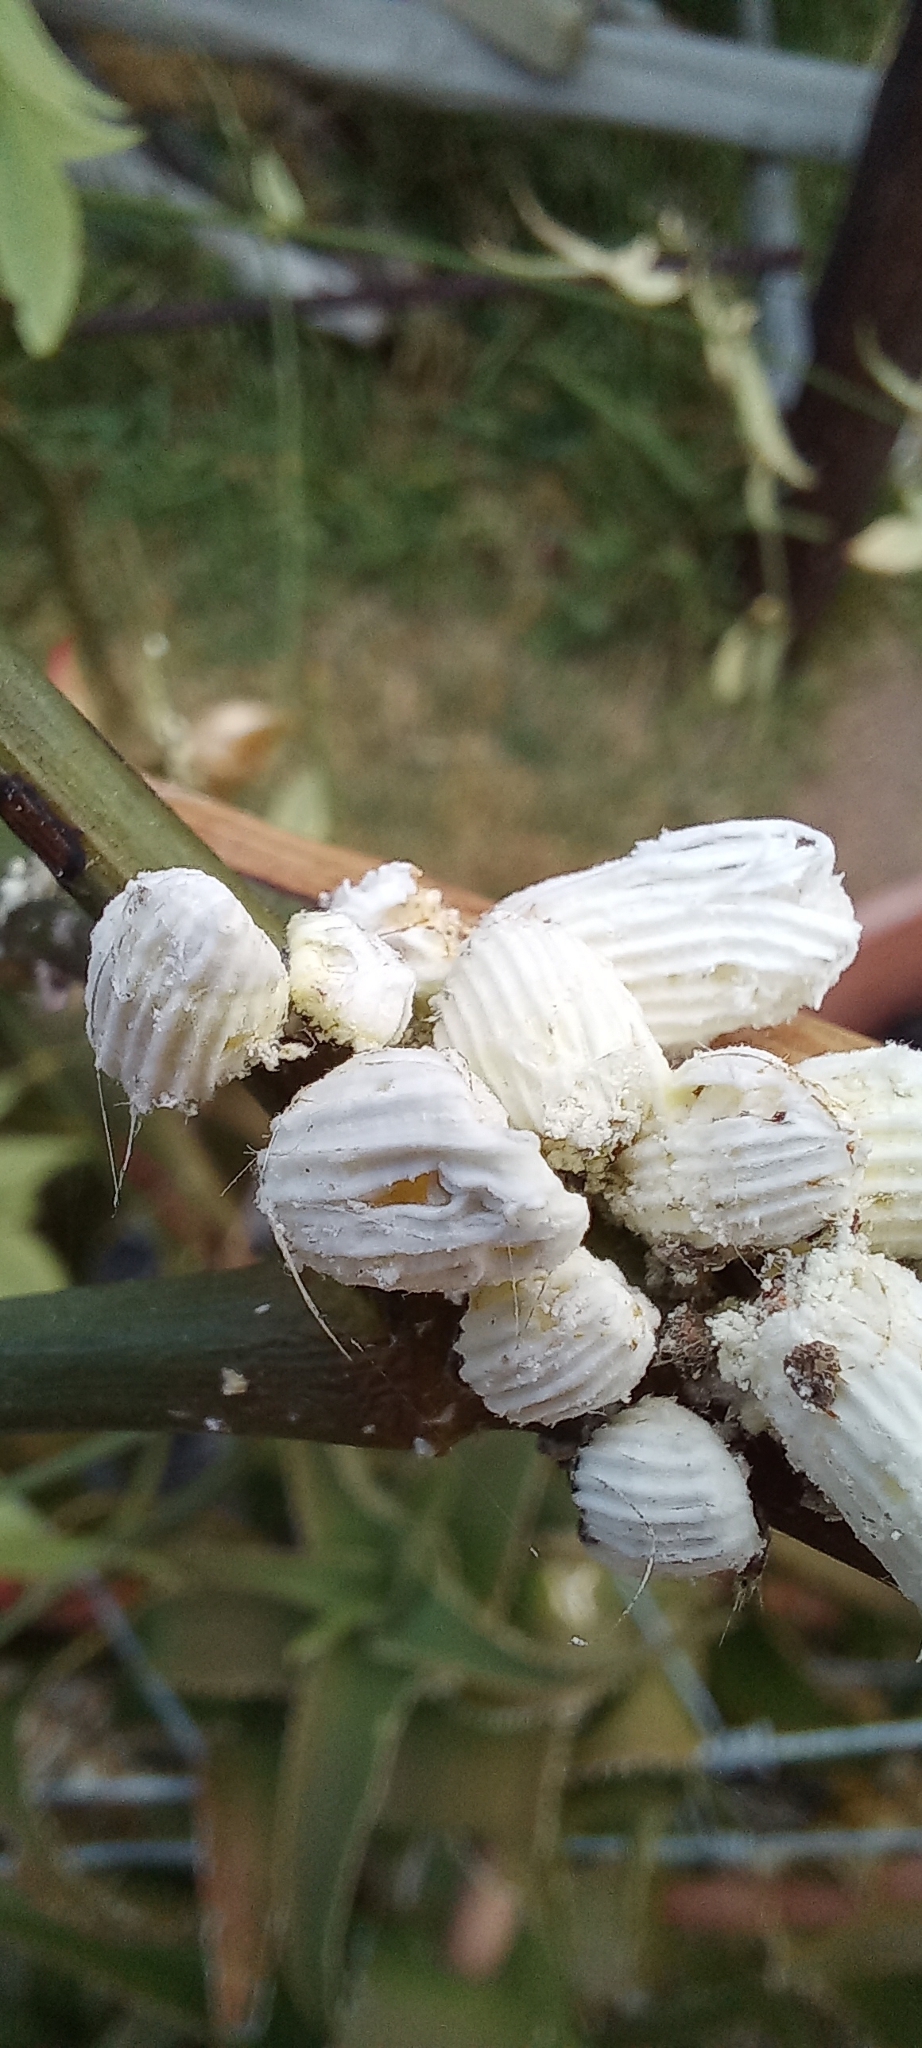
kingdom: Animalia
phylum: Arthropoda
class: Insecta
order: Hemiptera
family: Margarodidae
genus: Icerya
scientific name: Icerya purchasi
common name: Cottony cushion scale
